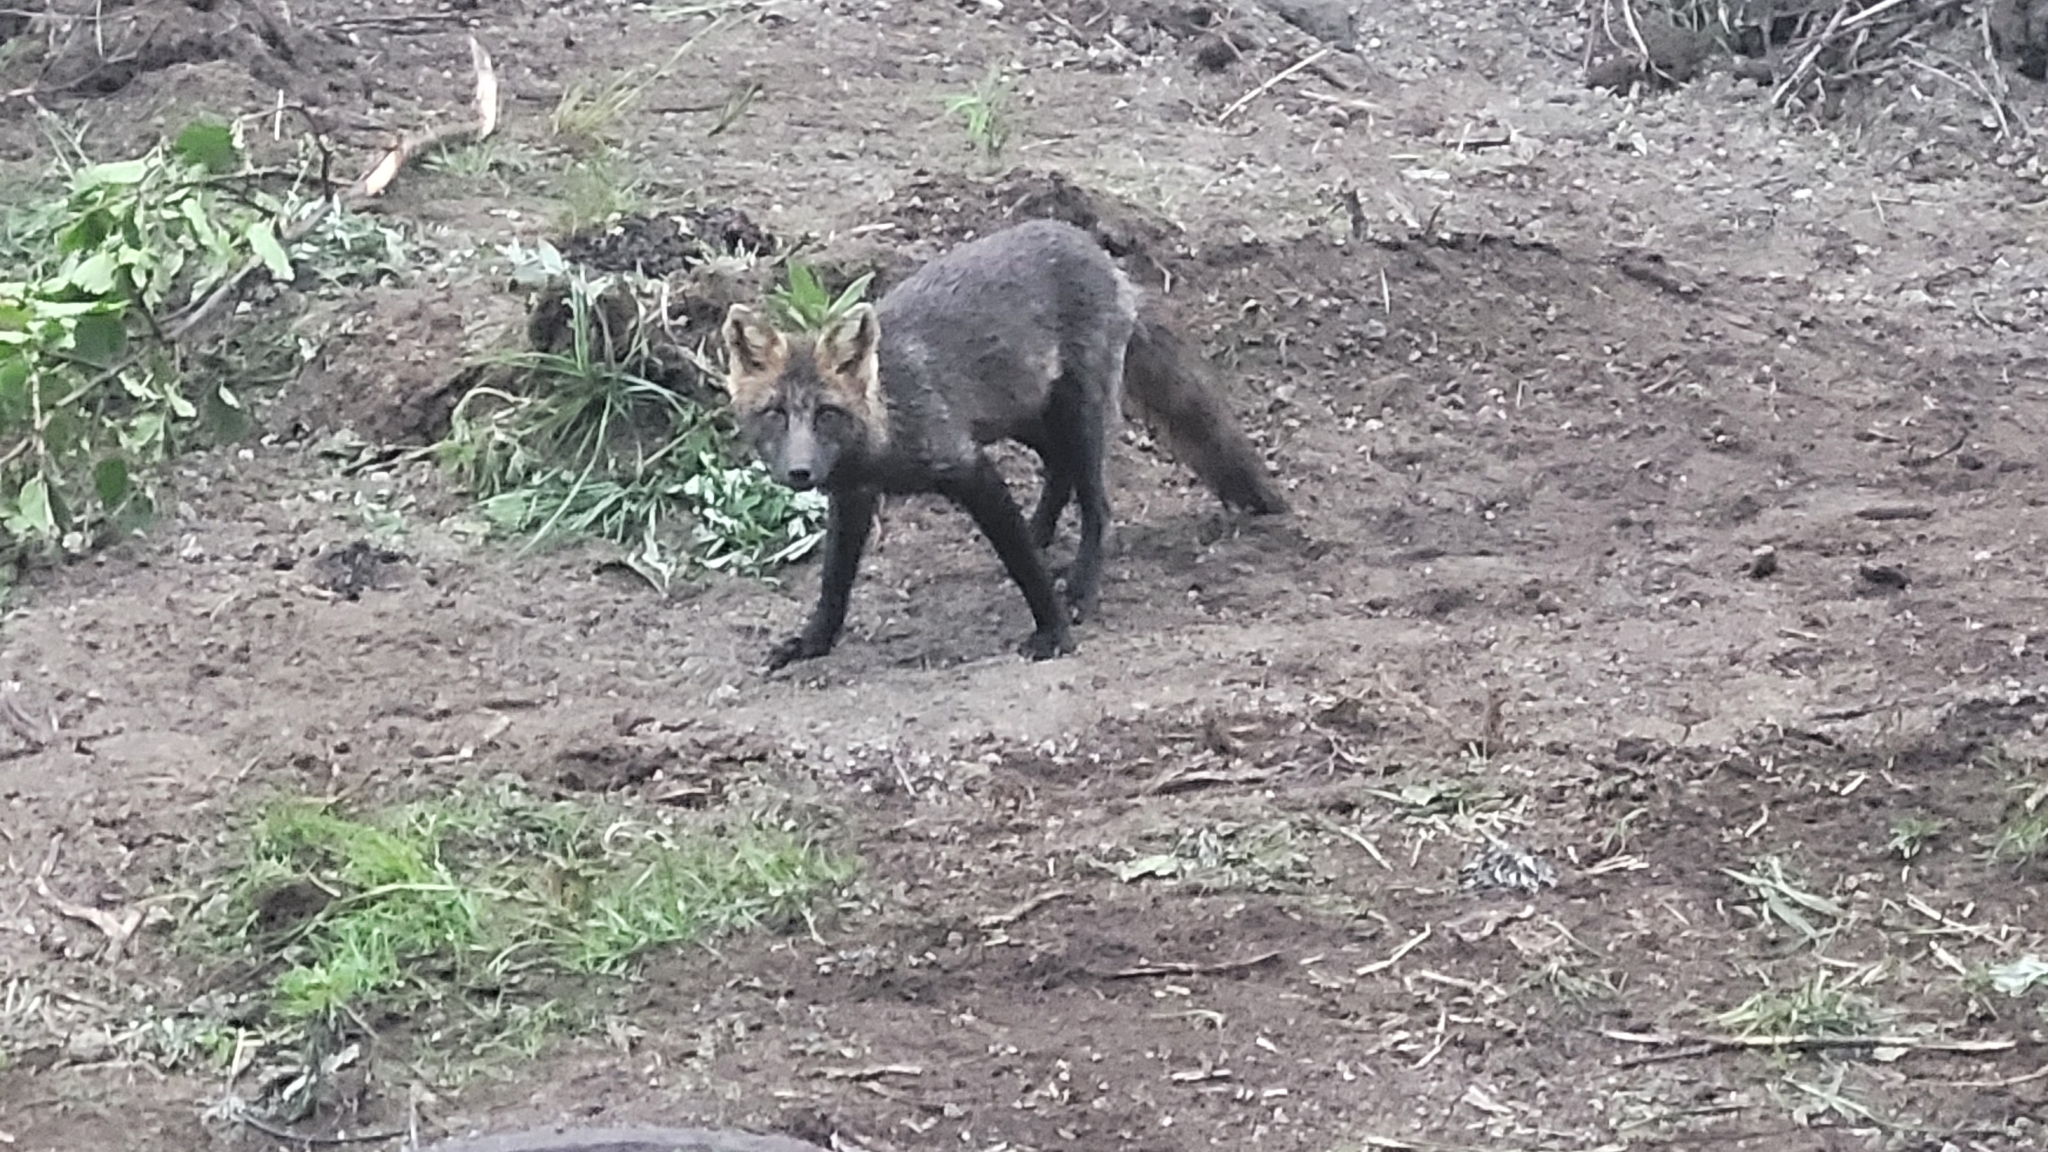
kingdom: Animalia
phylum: Chordata
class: Mammalia
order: Carnivora
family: Canidae
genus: Vulpes
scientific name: Vulpes vulpes
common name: Red fox
